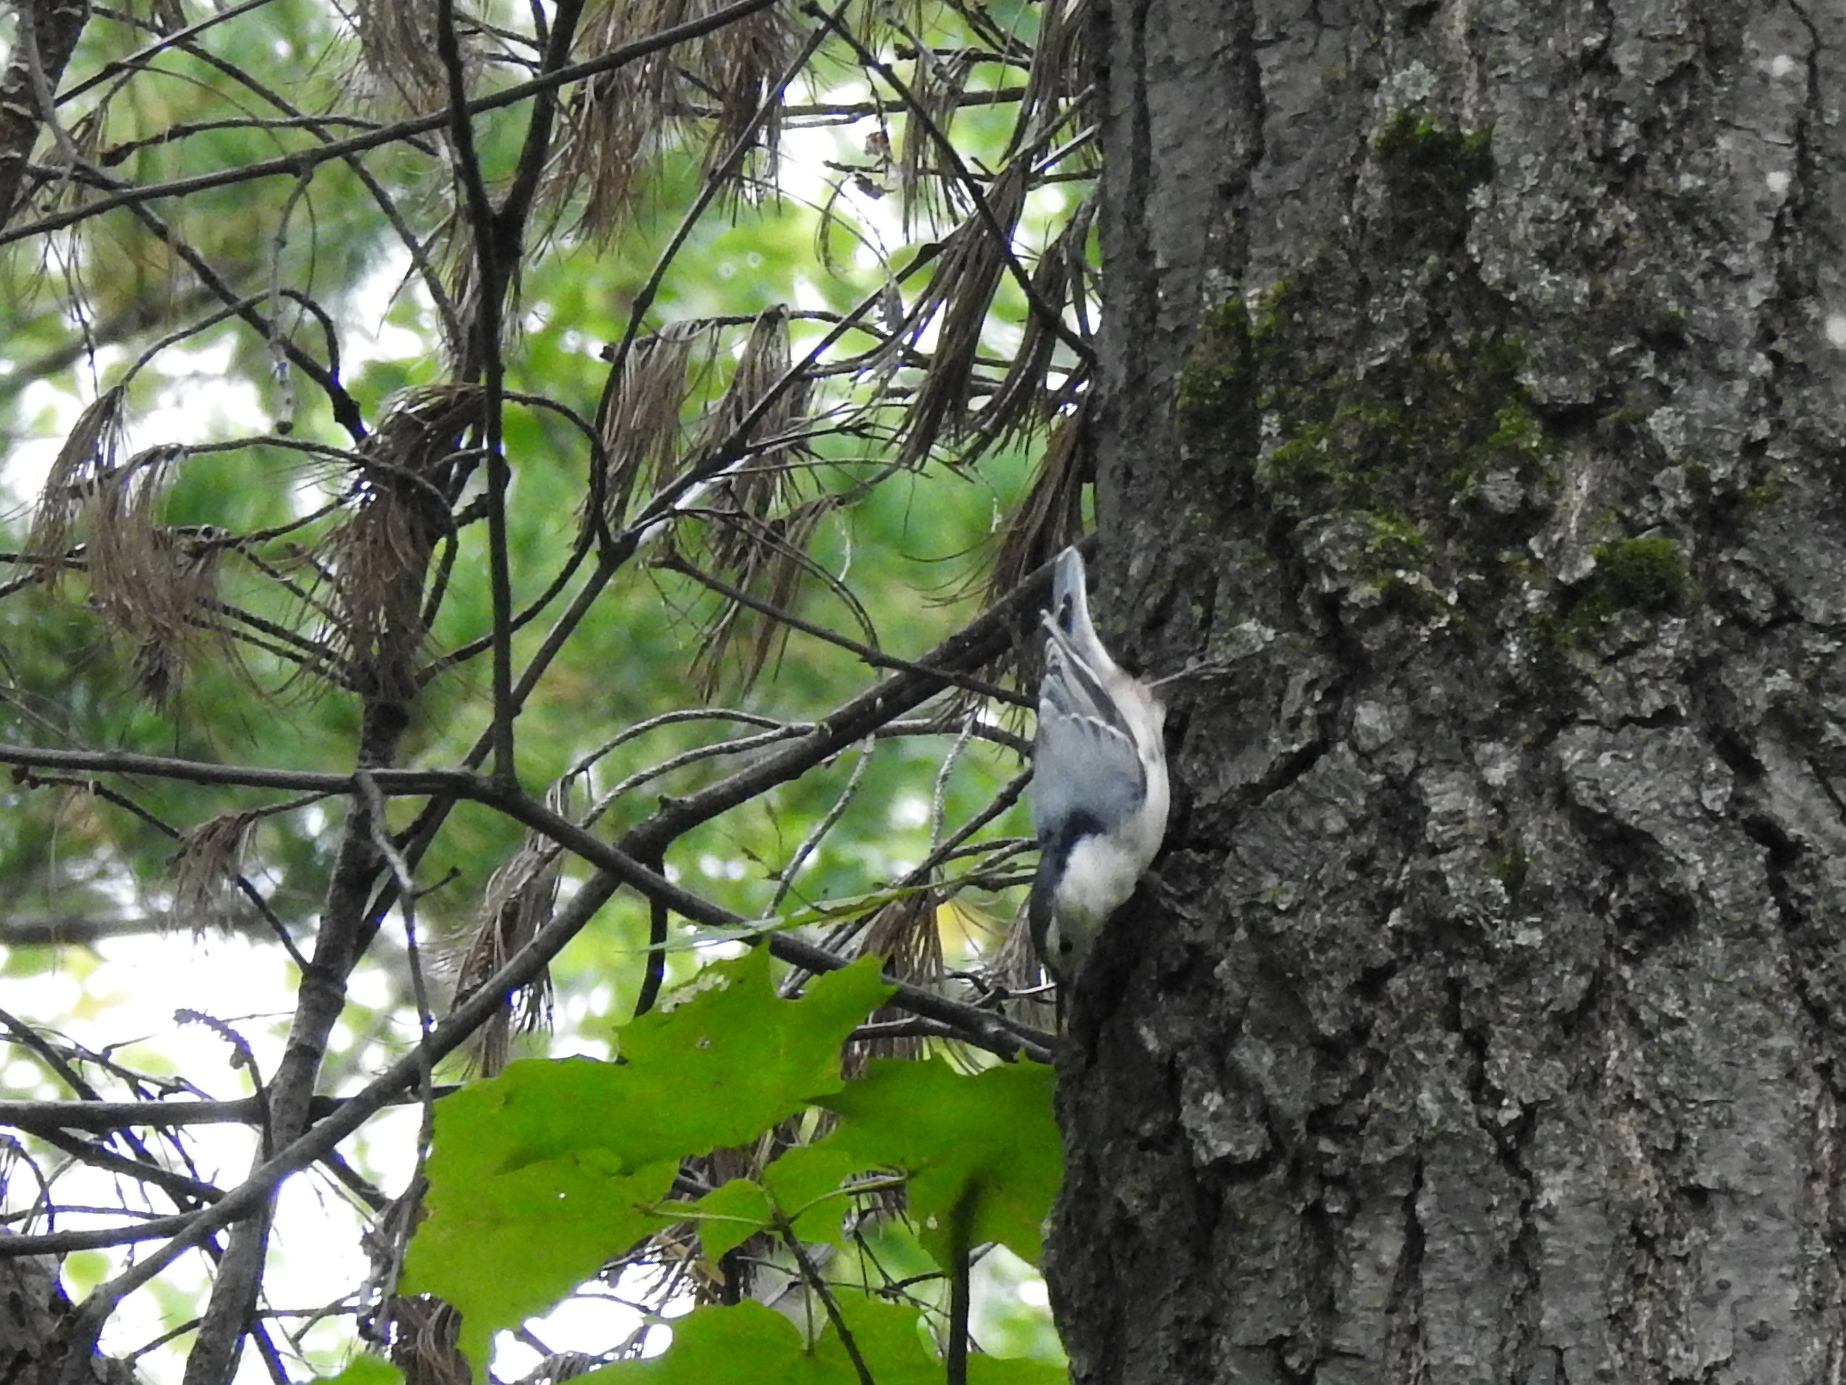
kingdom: Animalia
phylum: Chordata
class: Aves
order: Passeriformes
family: Sittidae
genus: Sitta
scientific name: Sitta carolinensis
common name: White-breasted nuthatch
